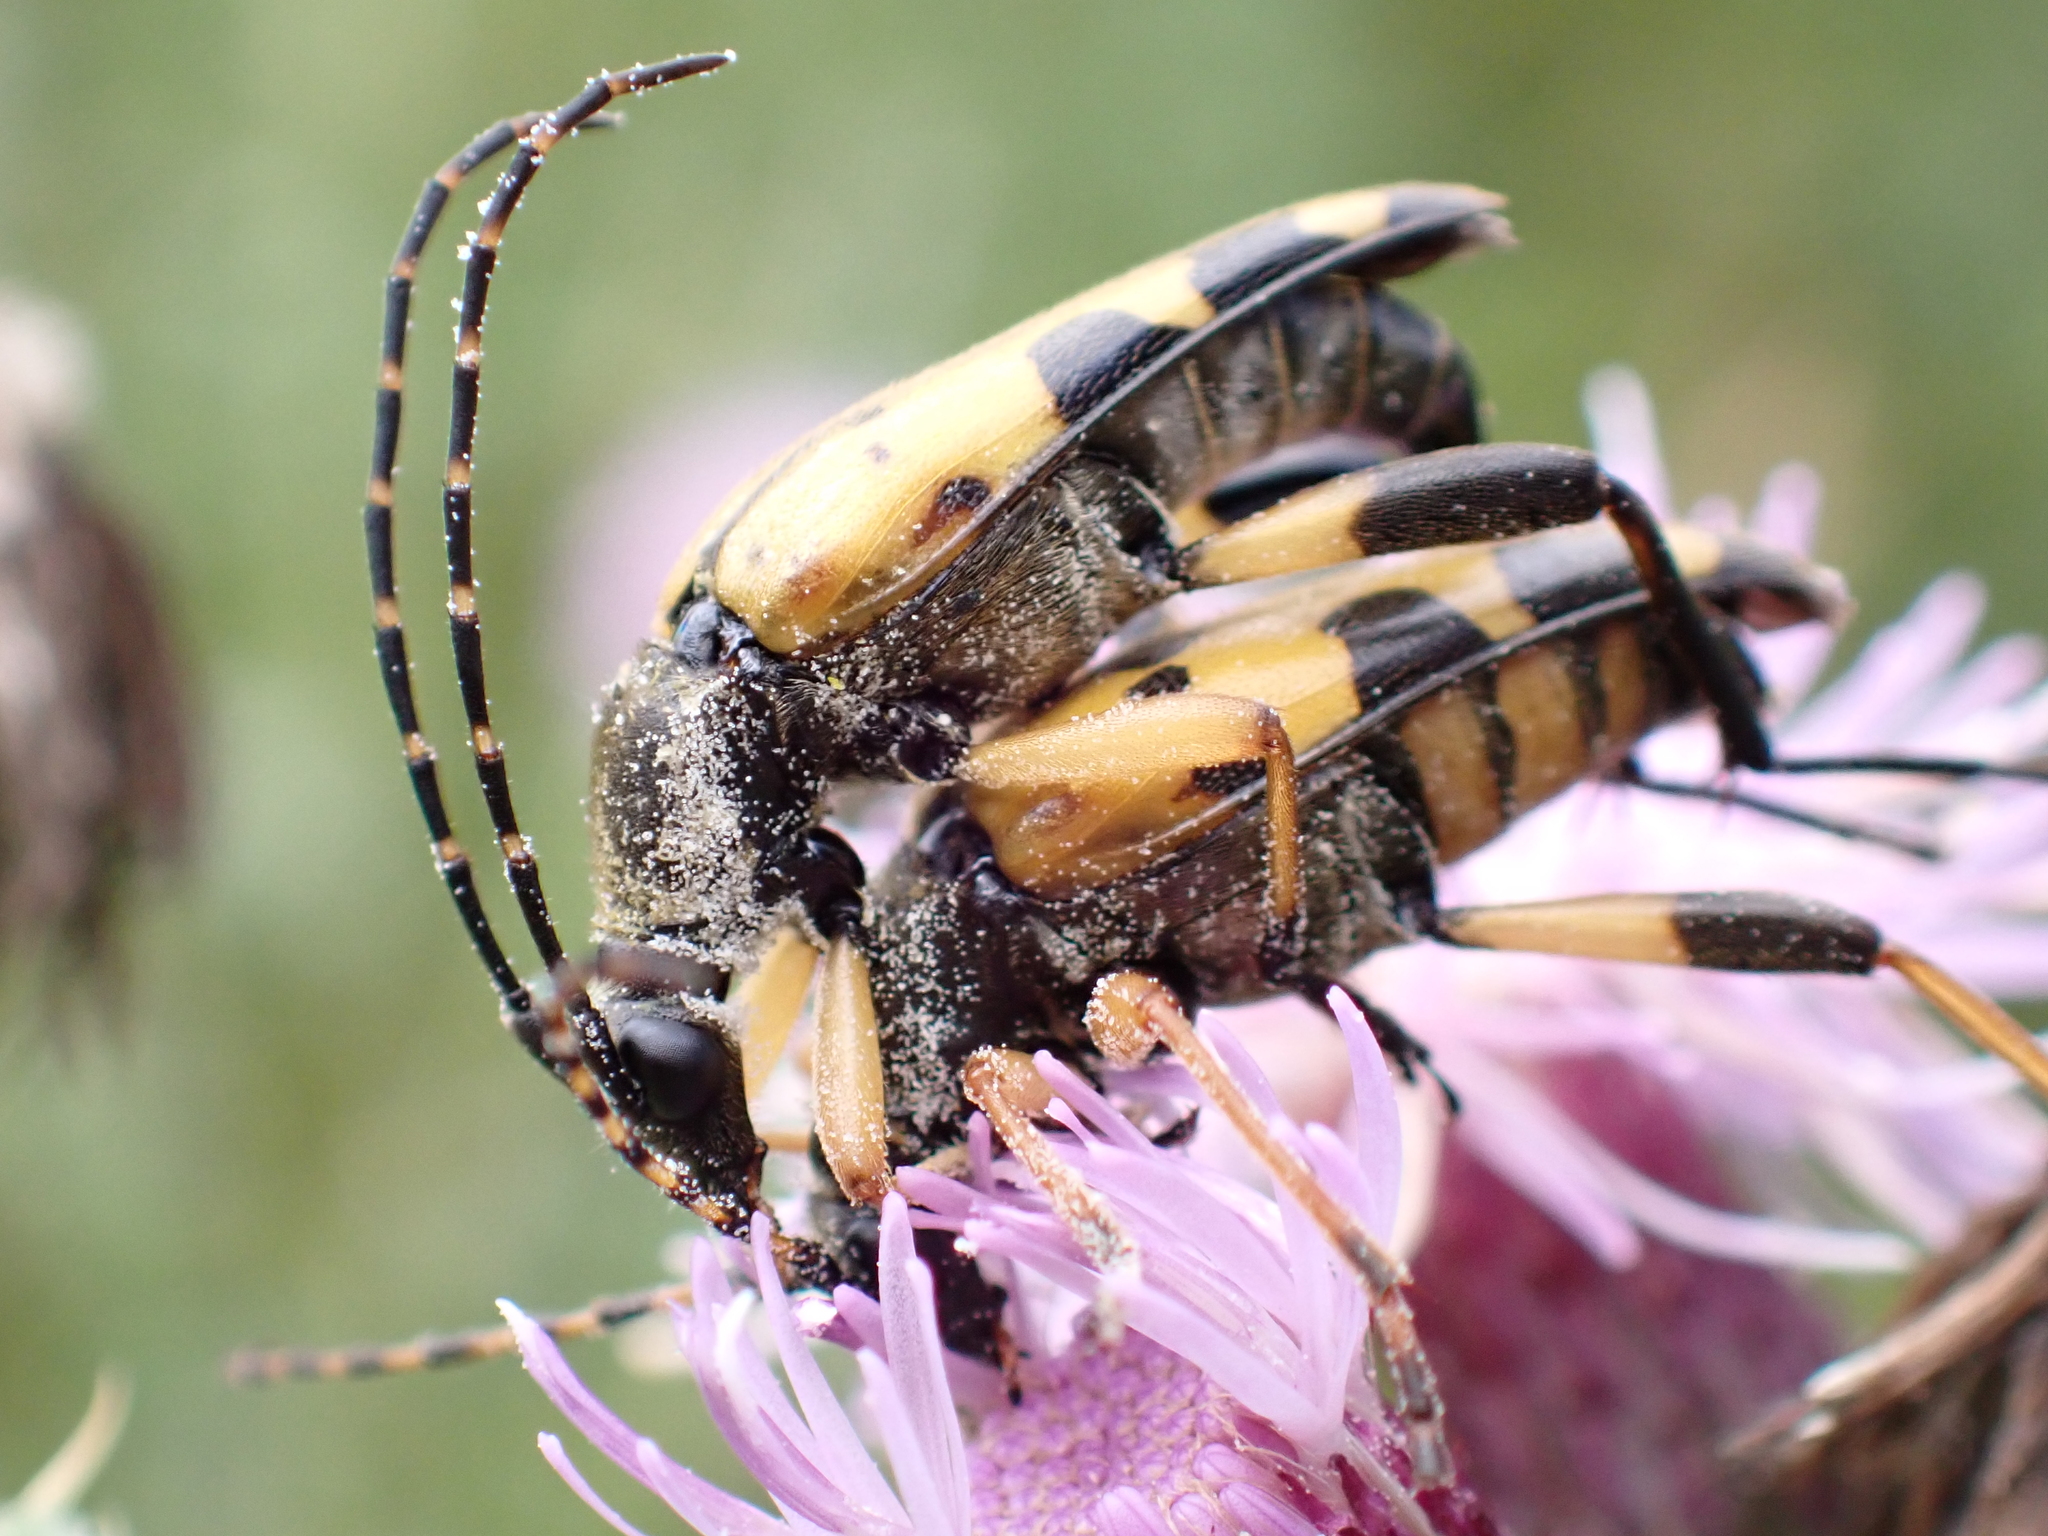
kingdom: Animalia
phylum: Arthropoda
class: Insecta
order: Coleoptera
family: Cerambycidae
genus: Rutpela
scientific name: Rutpela maculata
